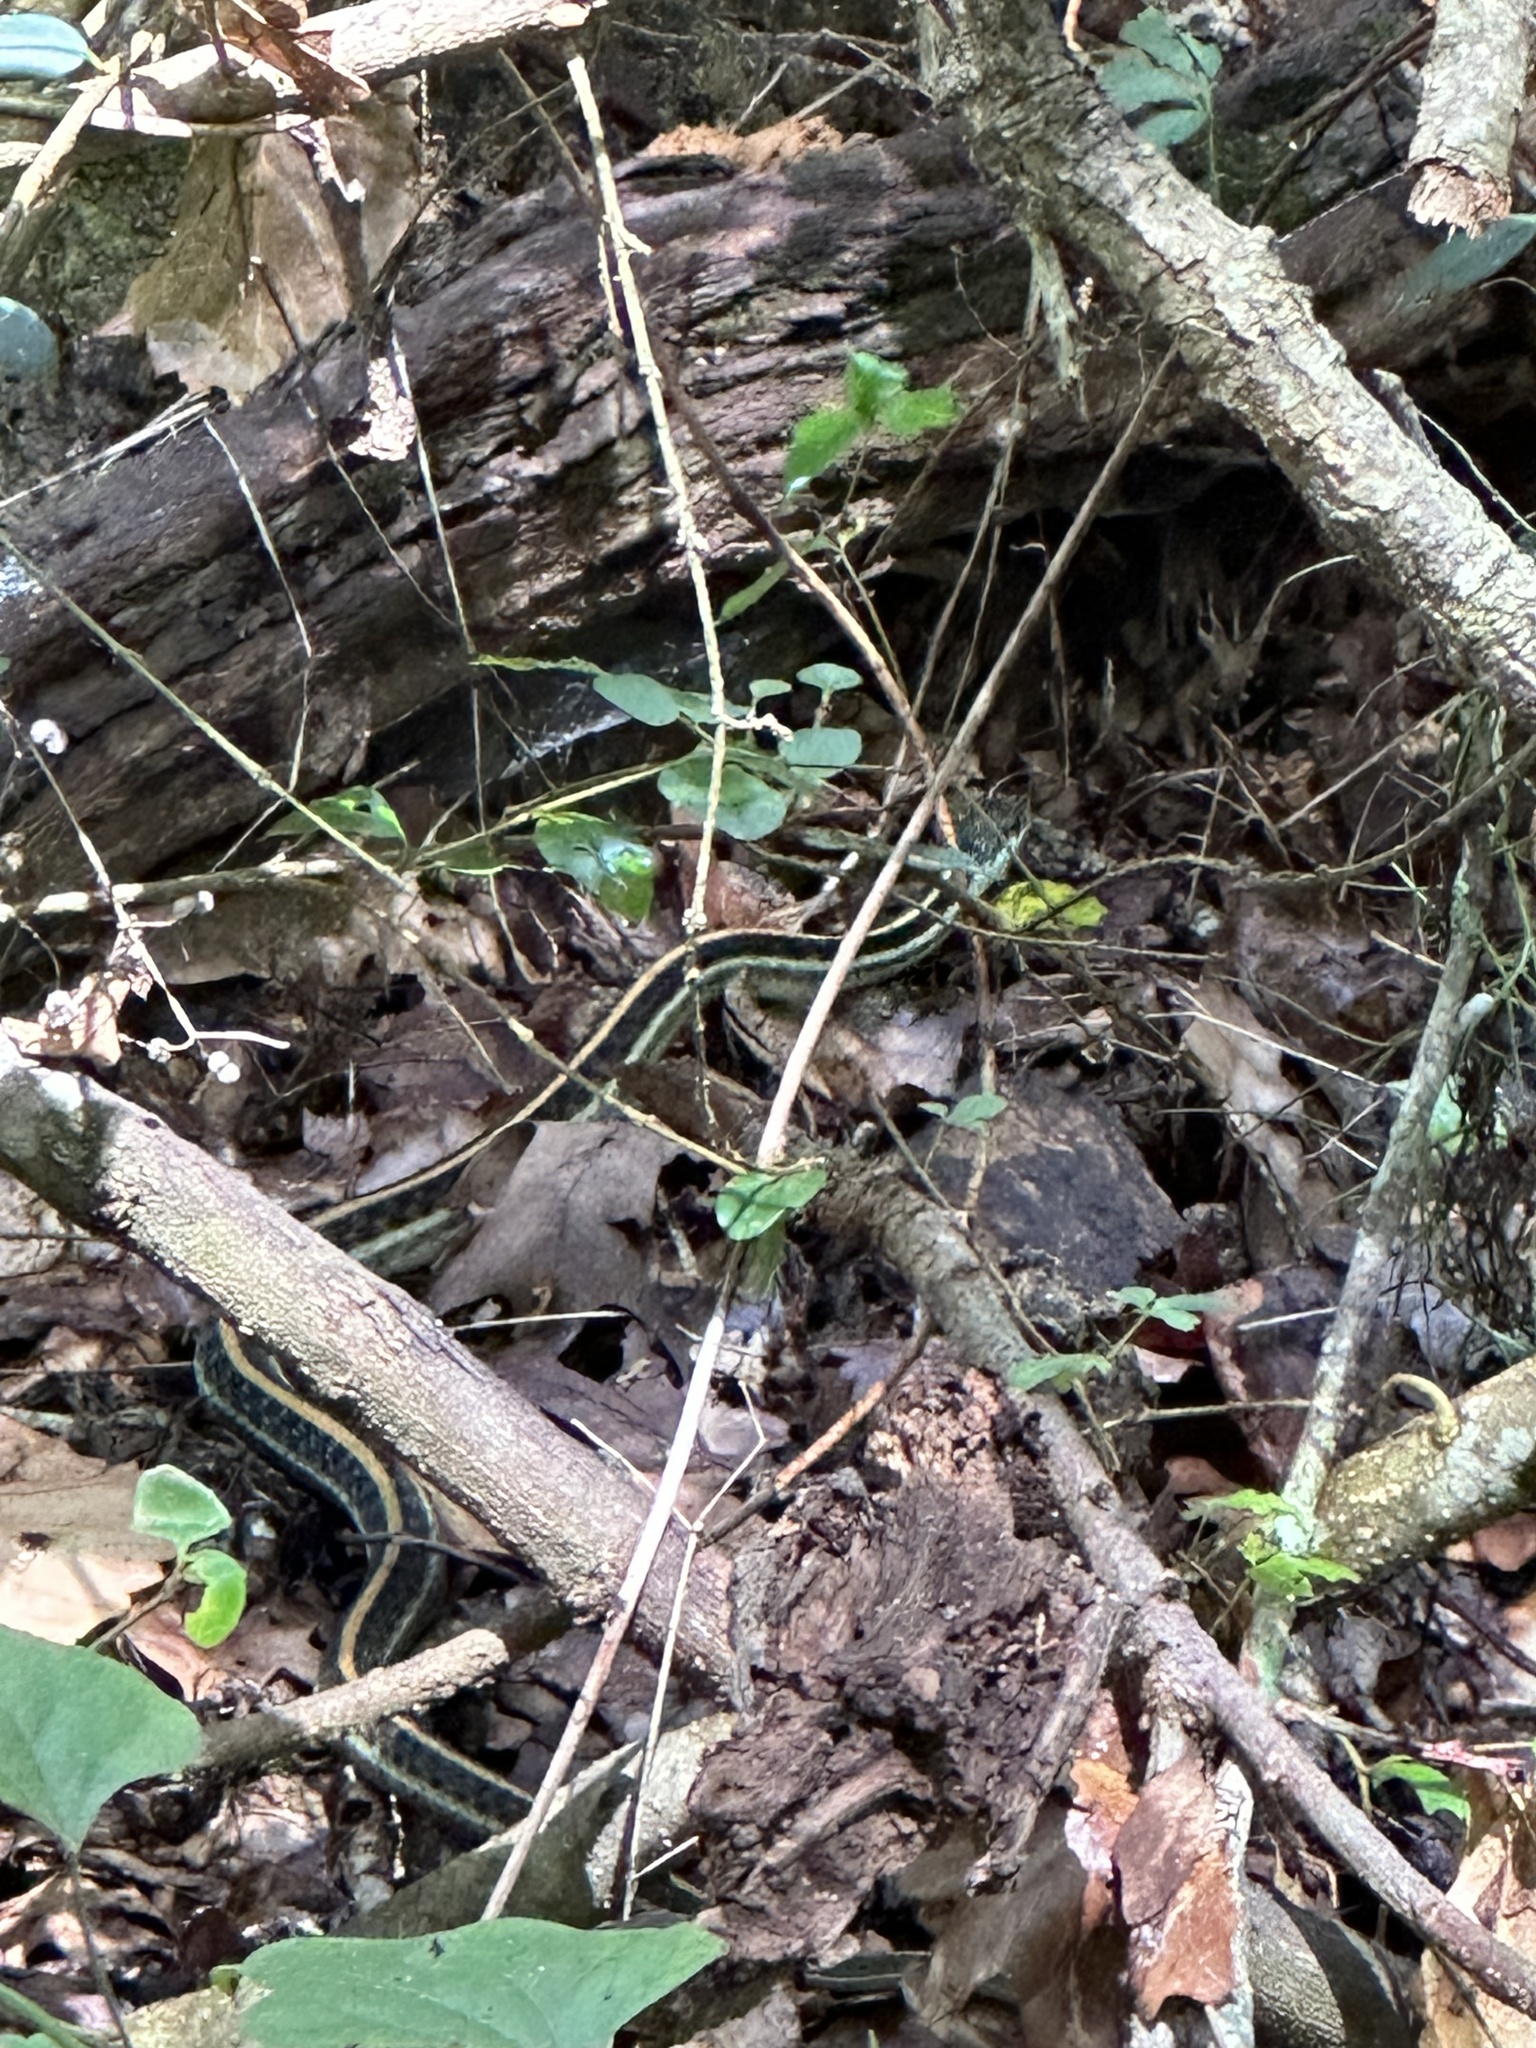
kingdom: Animalia
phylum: Chordata
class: Squamata
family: Colubridae
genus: Thamnophis
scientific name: Thamnophis sirtalis
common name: Common garter snake
